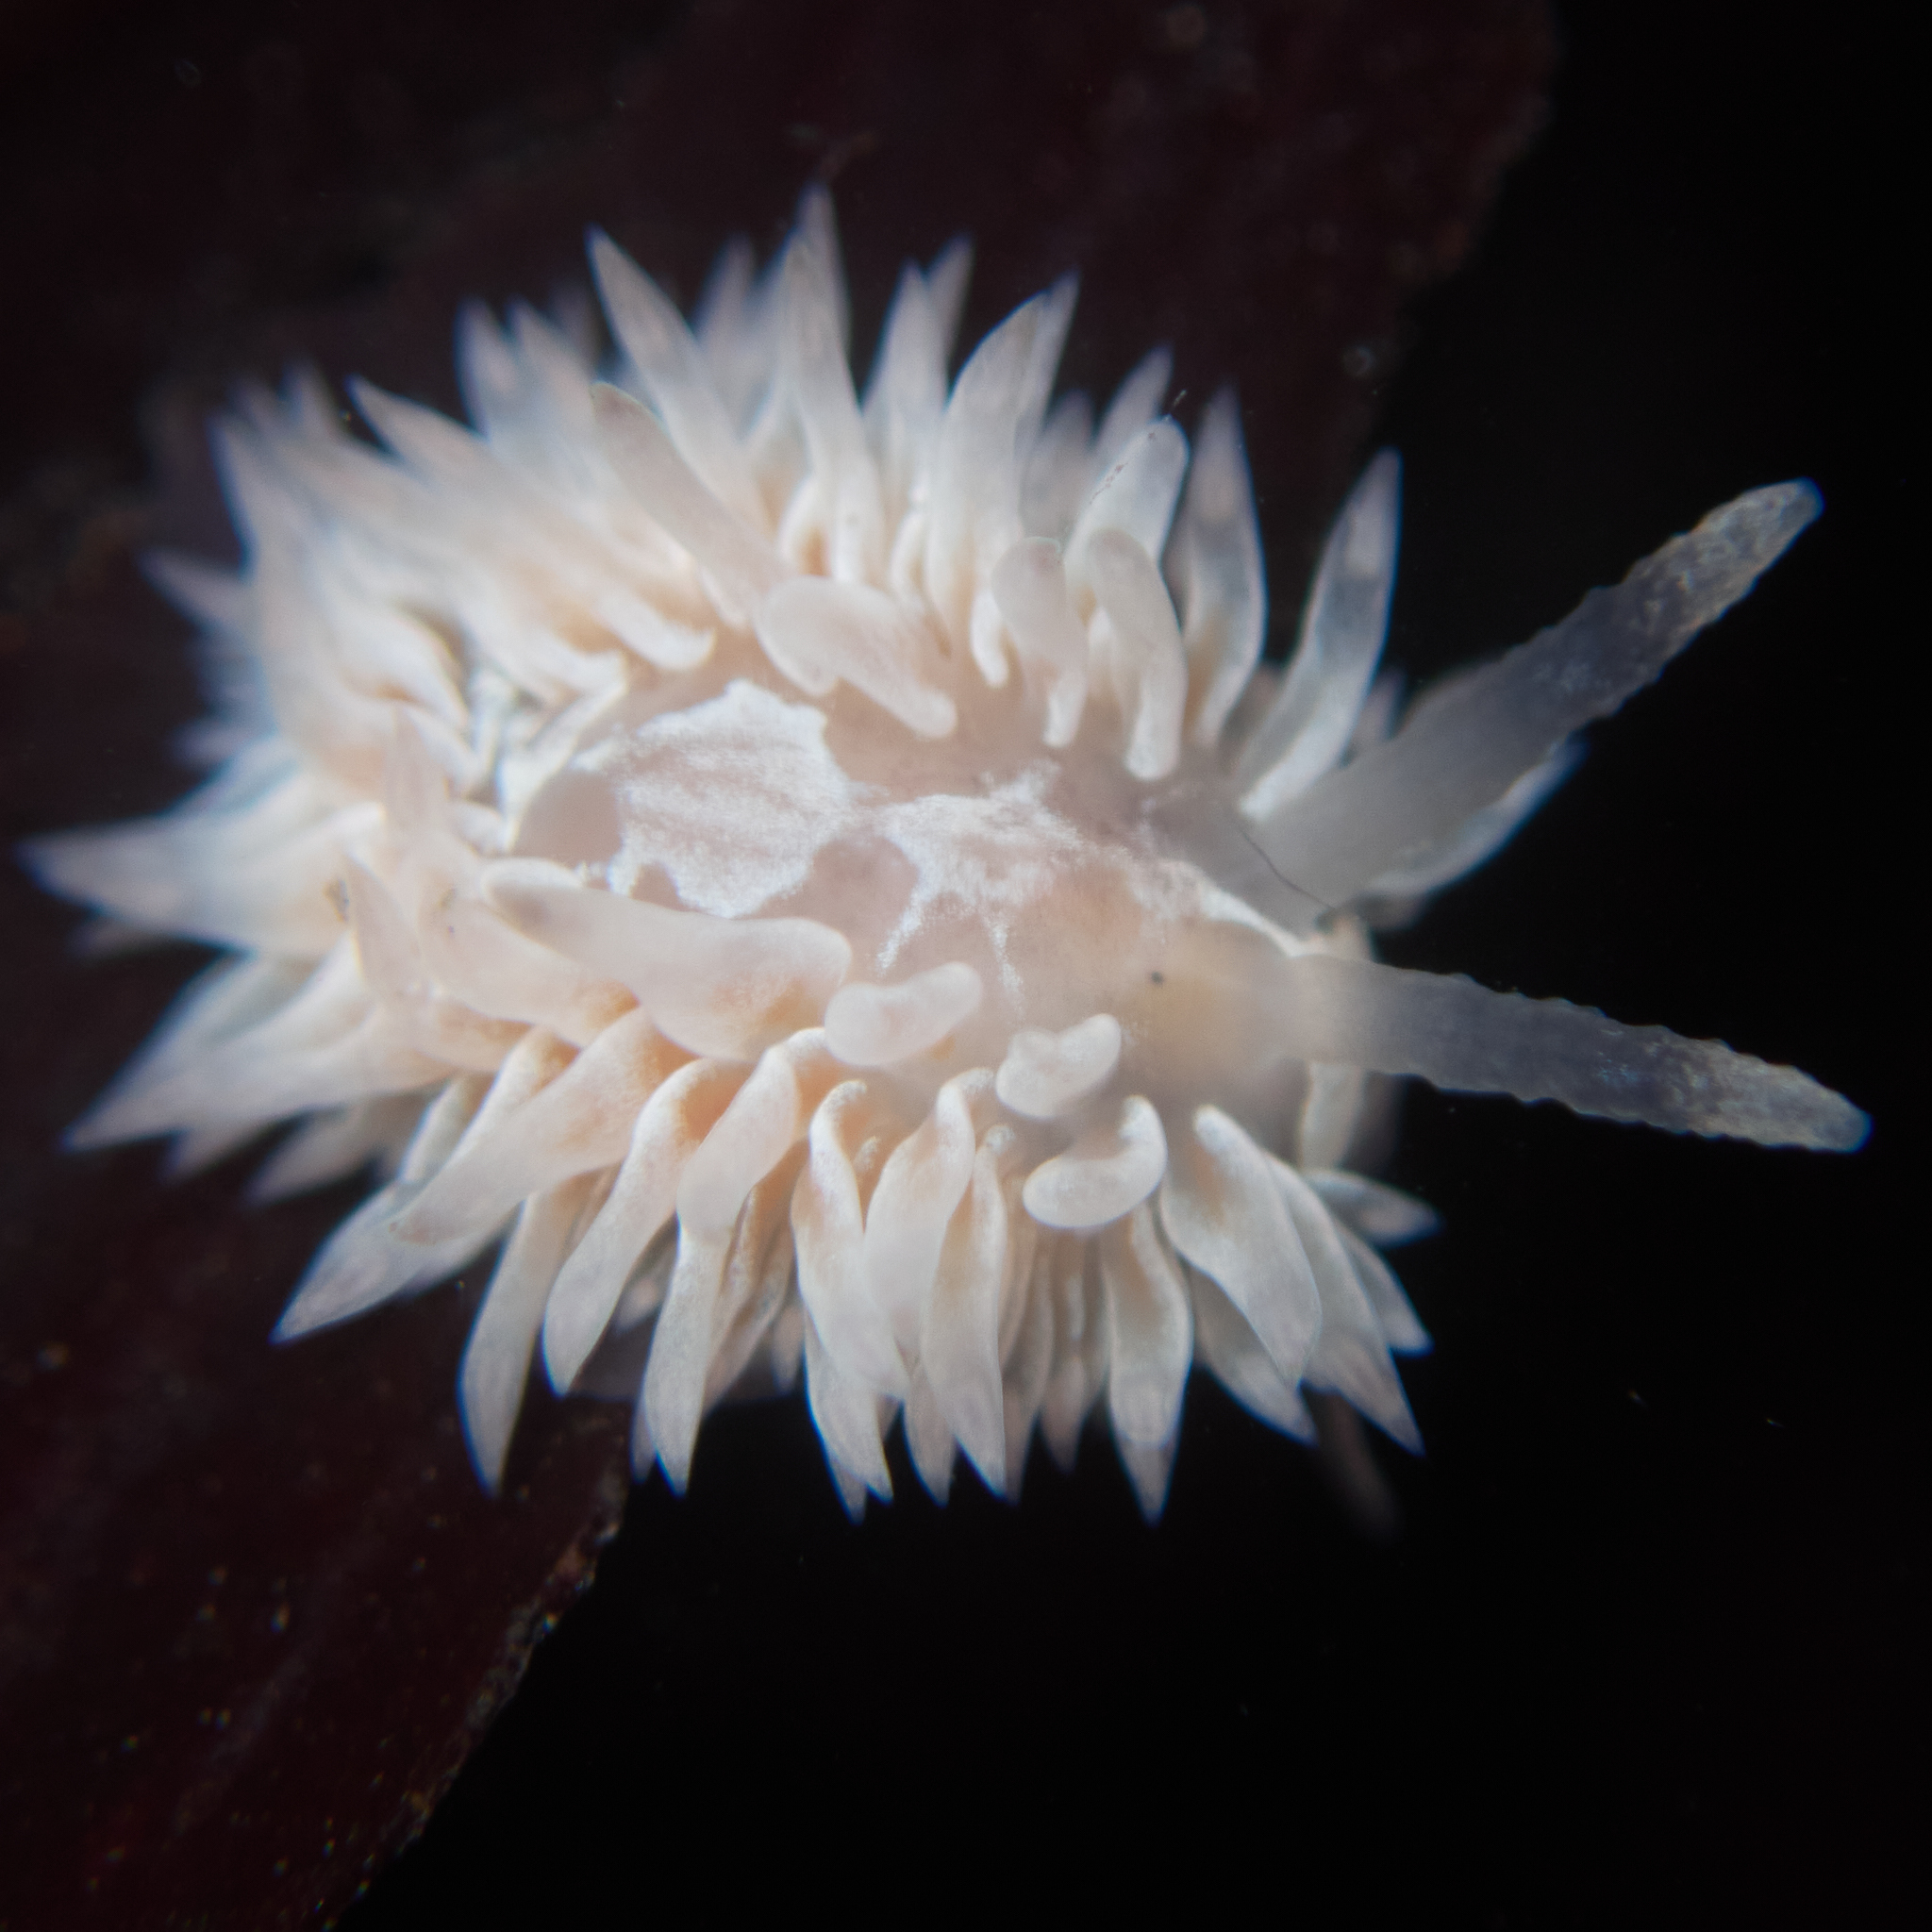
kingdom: Animalia
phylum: Mollusca
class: Gastropoda
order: Nudibranchia
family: Aeolidiidae
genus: Aeolidia
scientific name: Aeolidia loui
